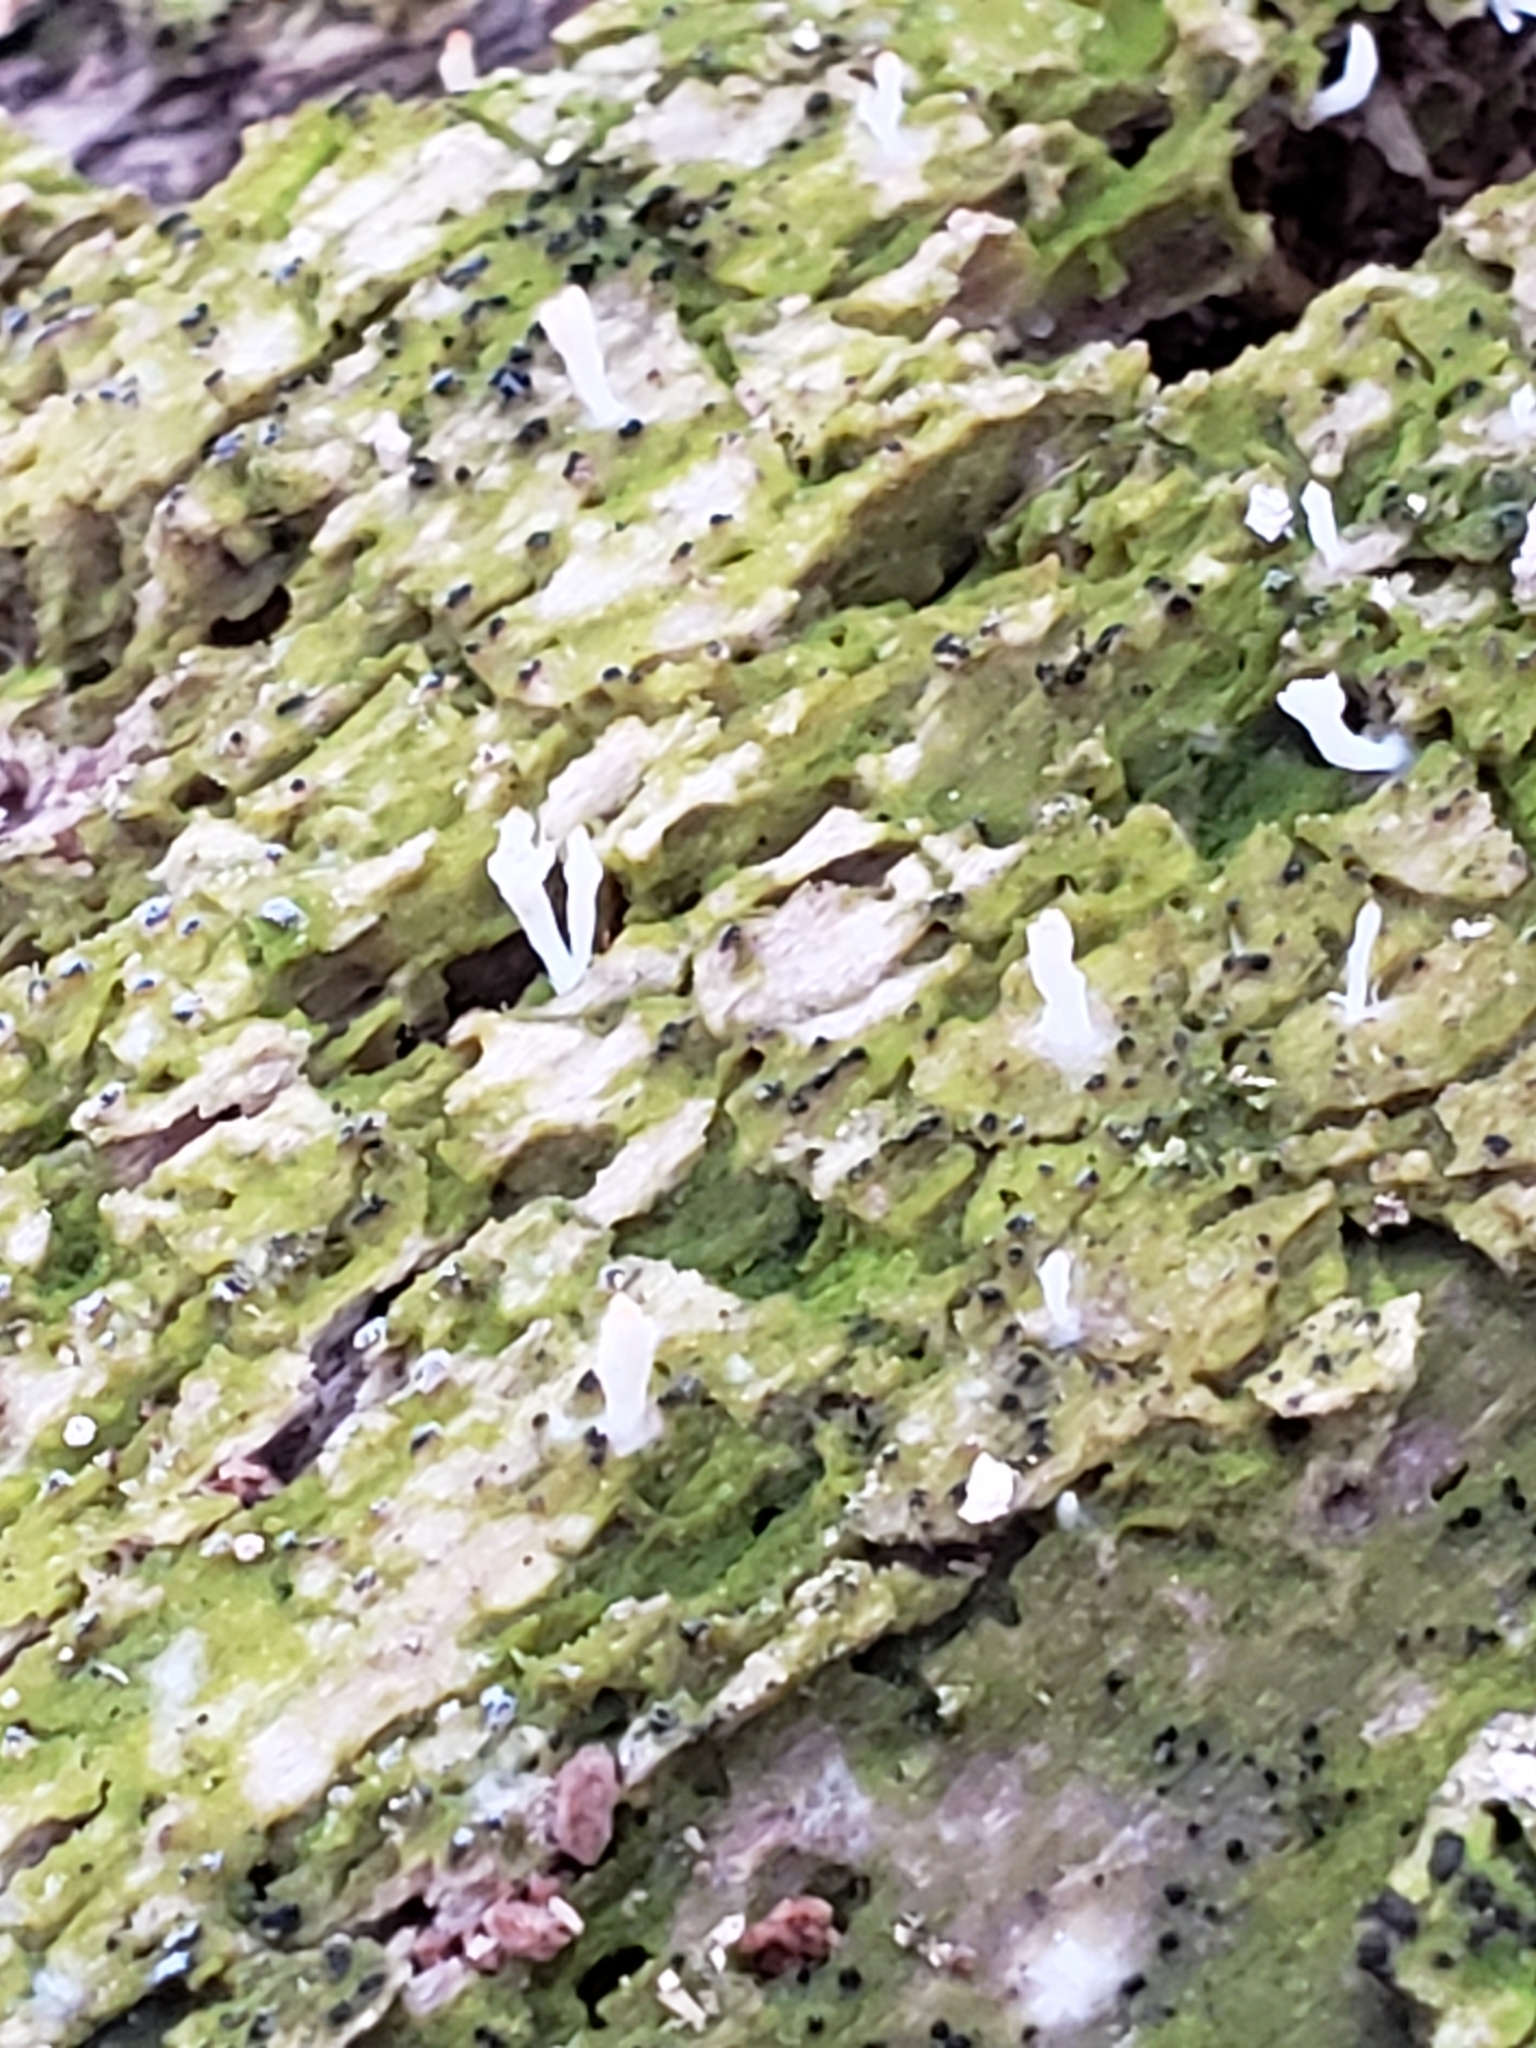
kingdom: Fungi
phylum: Basidiomycota
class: Agaricomycetes
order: Cantharellales
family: Hydnaceae
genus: Multiclavula
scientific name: Multiclavula mucida
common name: White green-algae coral
